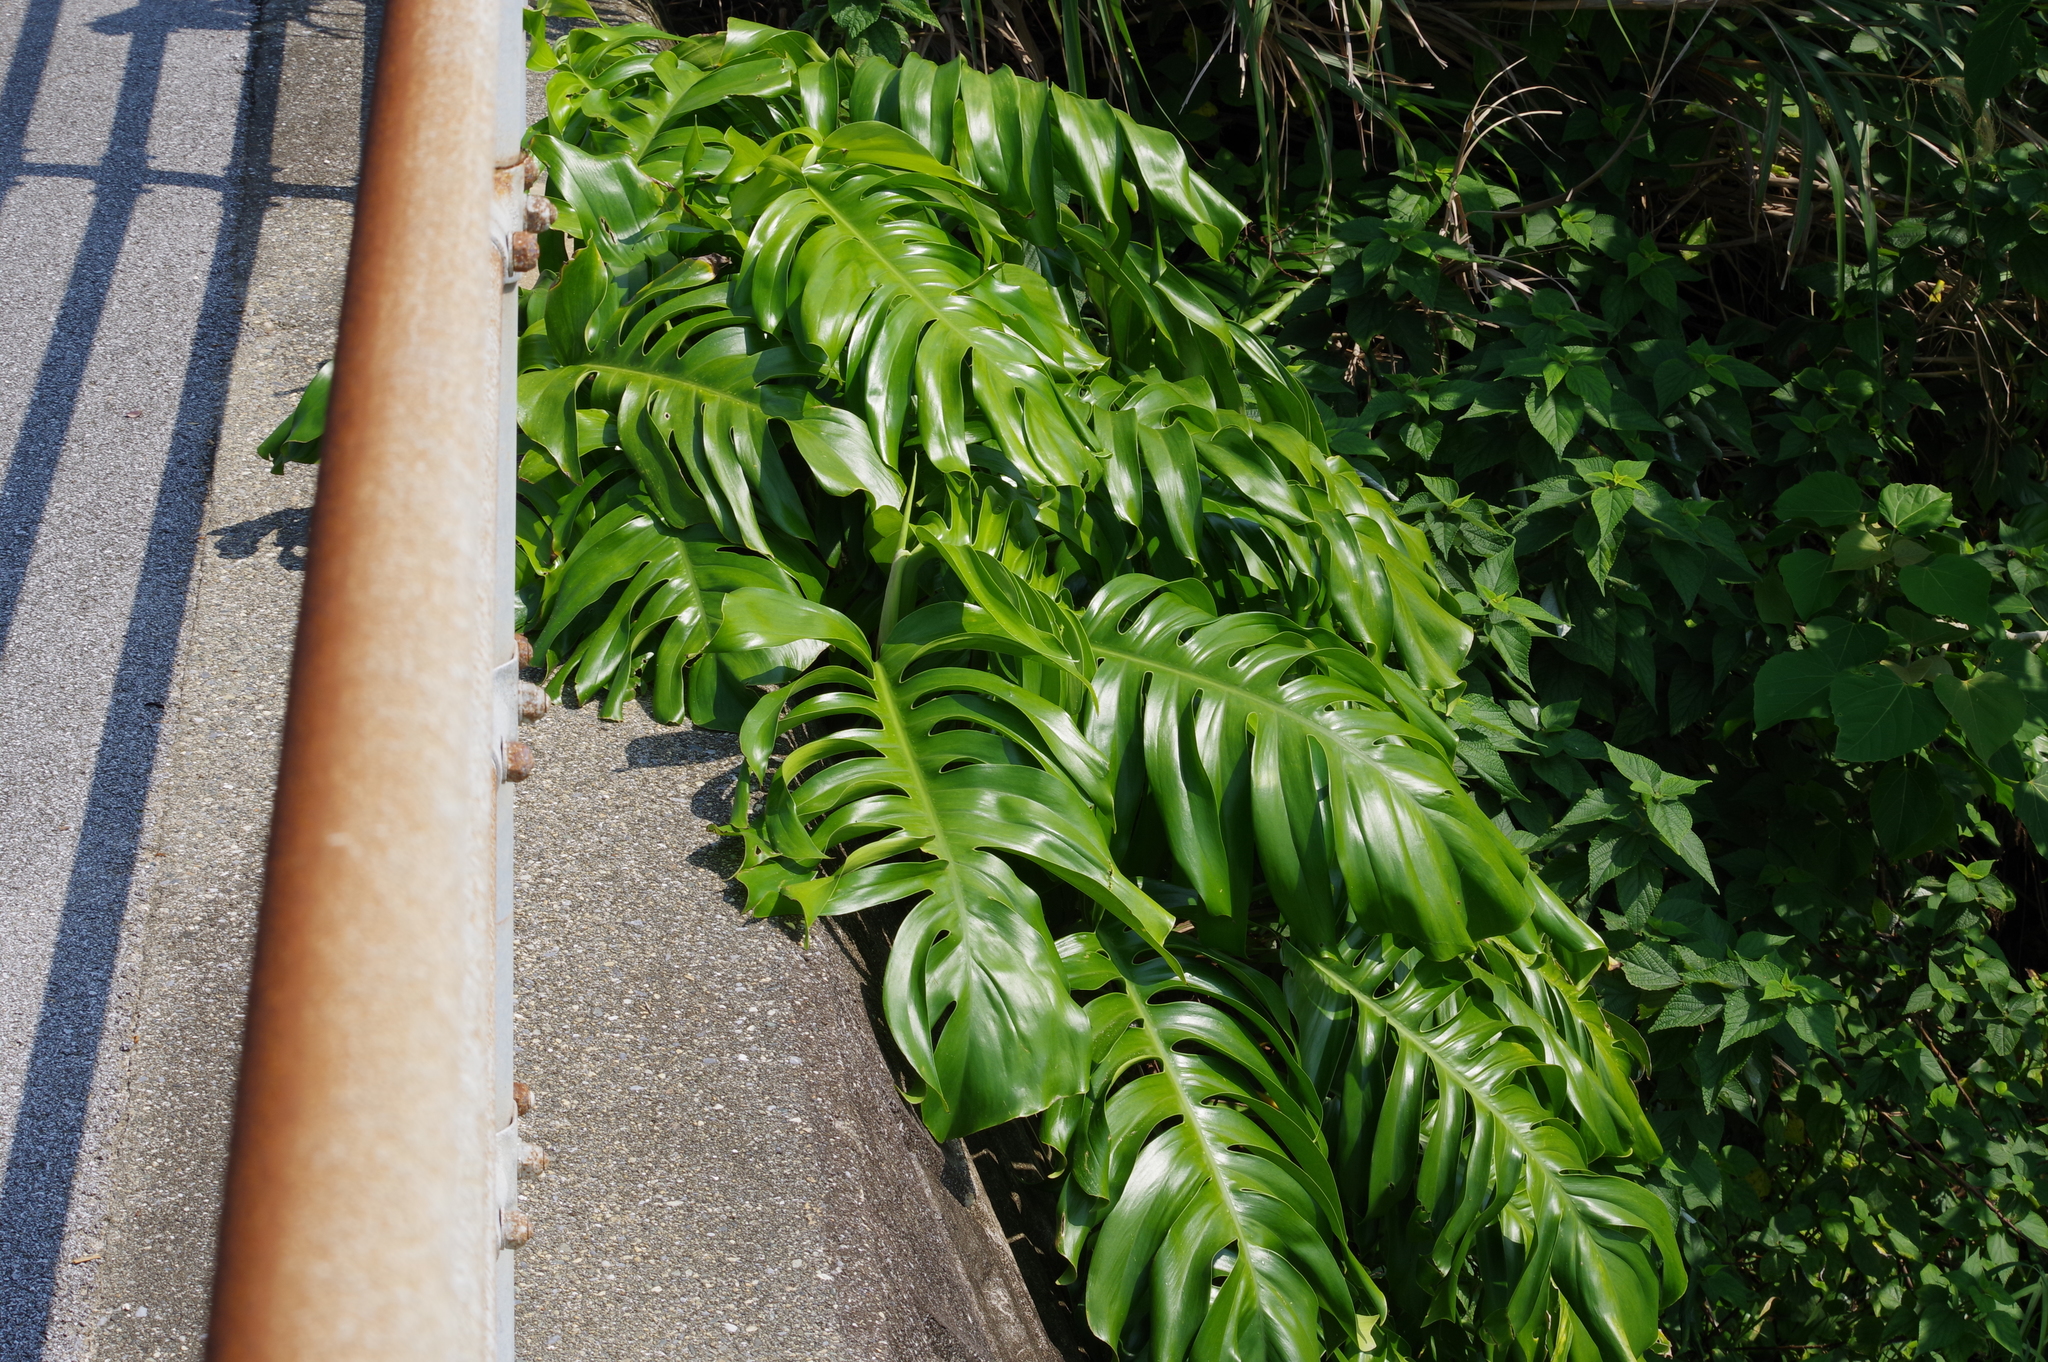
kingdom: Plantae
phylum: Tracheophyta
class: Liliopsida
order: Alismatales
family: Araceae
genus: Epipremnum
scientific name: Epipremnum pinnatum
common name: Centipede tongavine
